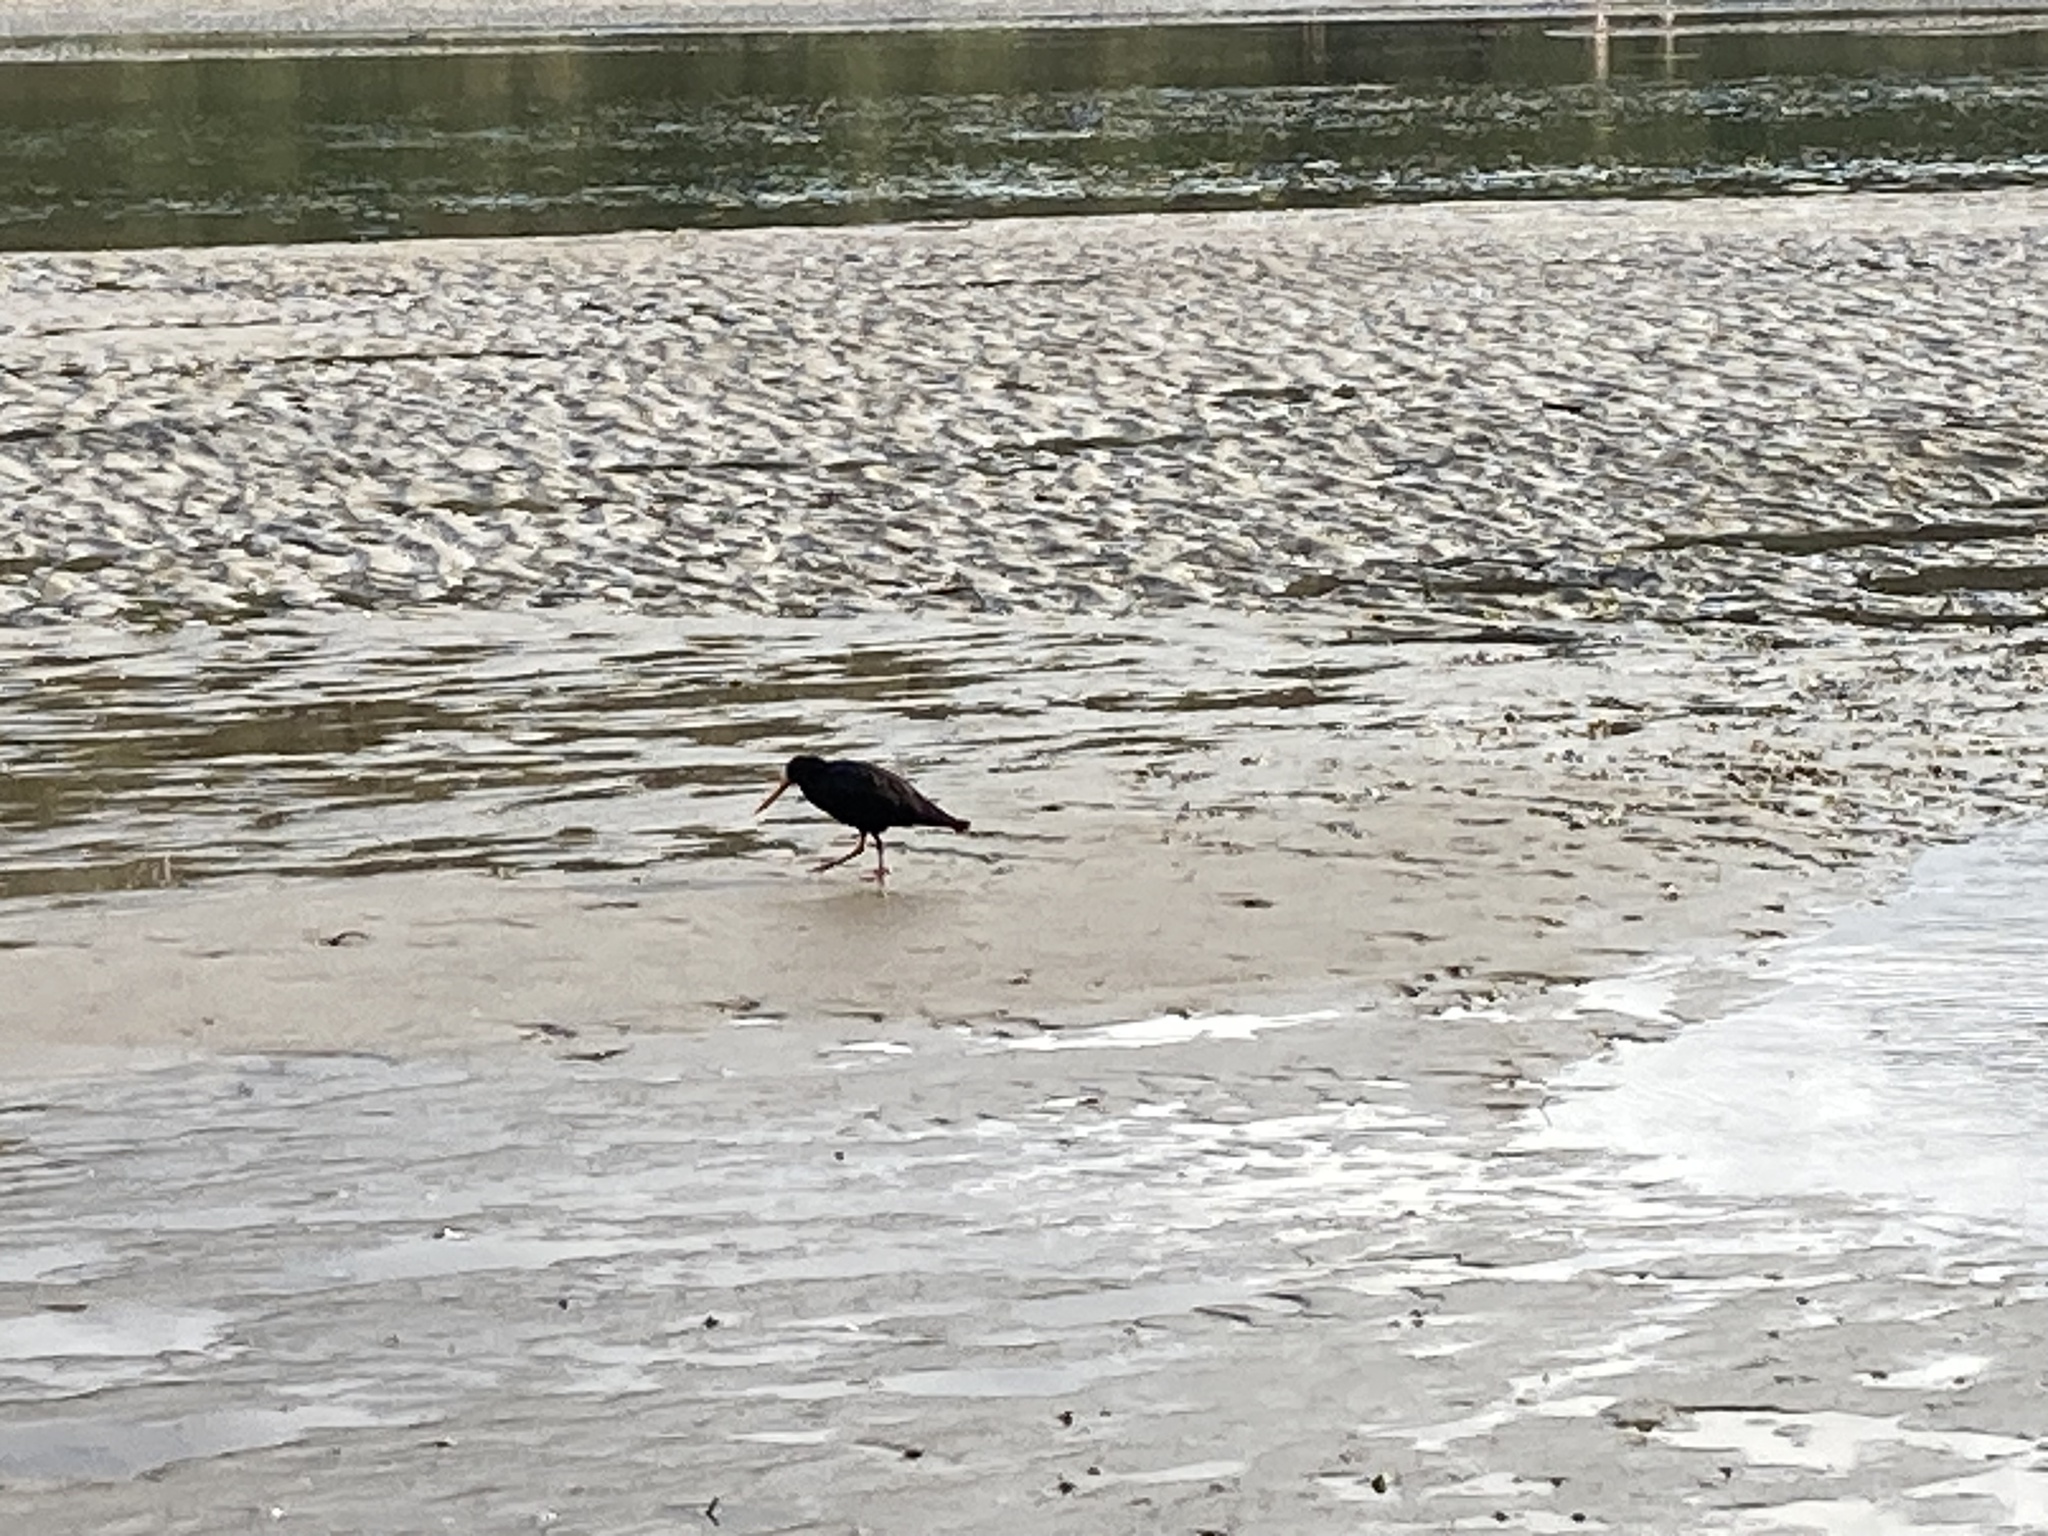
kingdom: Animalia
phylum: Chordata
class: Aves
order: Charadriiformes
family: Haematopodidae
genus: Haematopus
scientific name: Haematopus unicolor
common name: Variable oystercatcher
